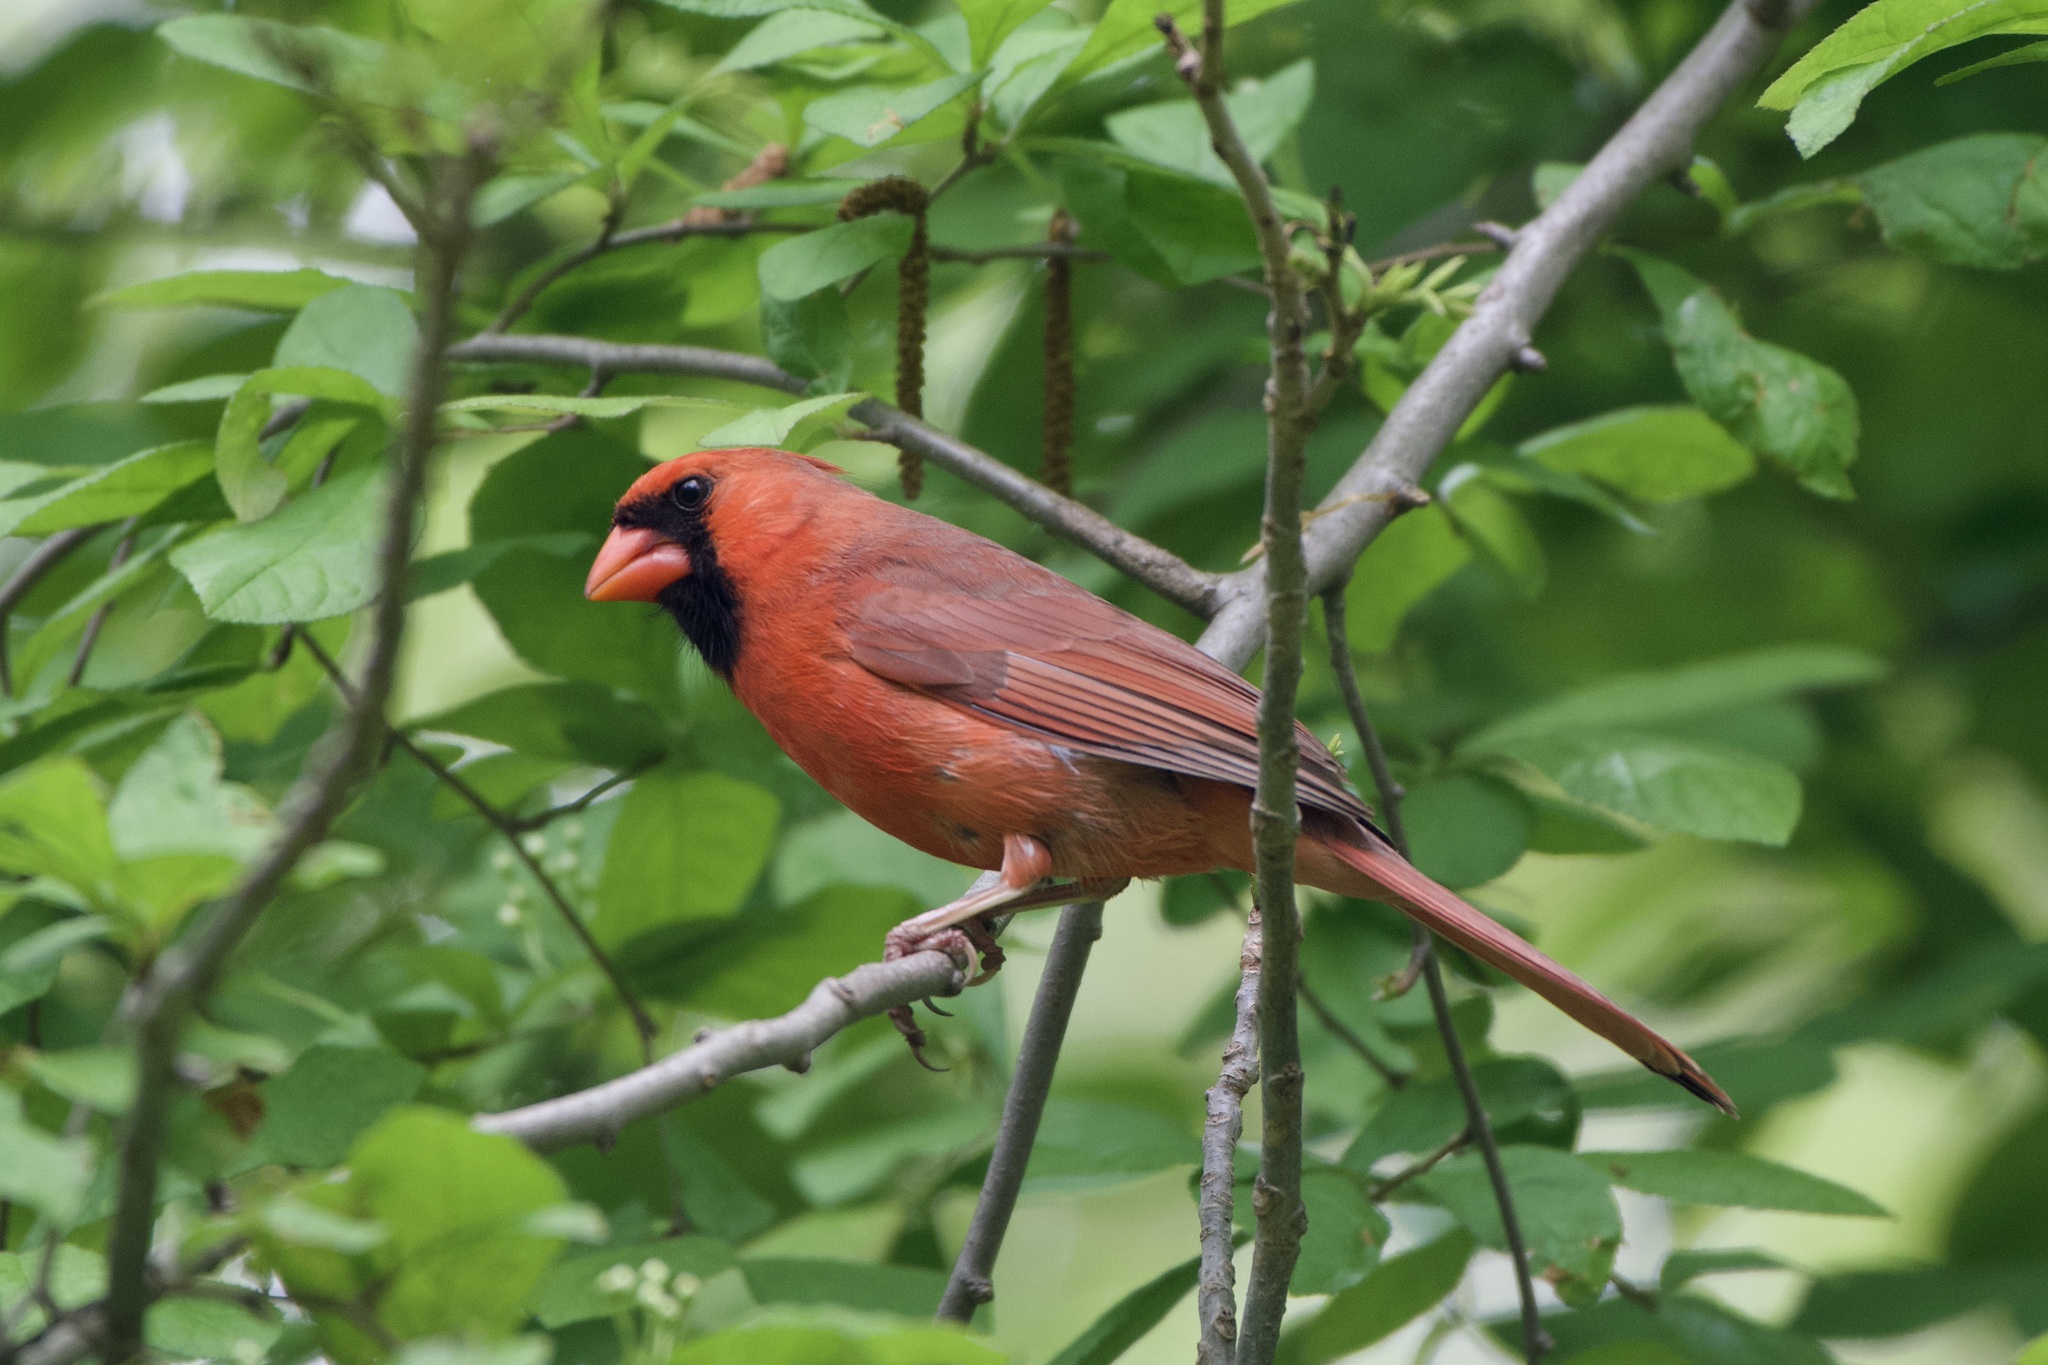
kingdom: Animalia
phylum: Chordata
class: Aves
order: Passeriformes
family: Cardinalidae
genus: Cardinalis
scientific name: Cardinalis cardinalis
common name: Northern cardinal
